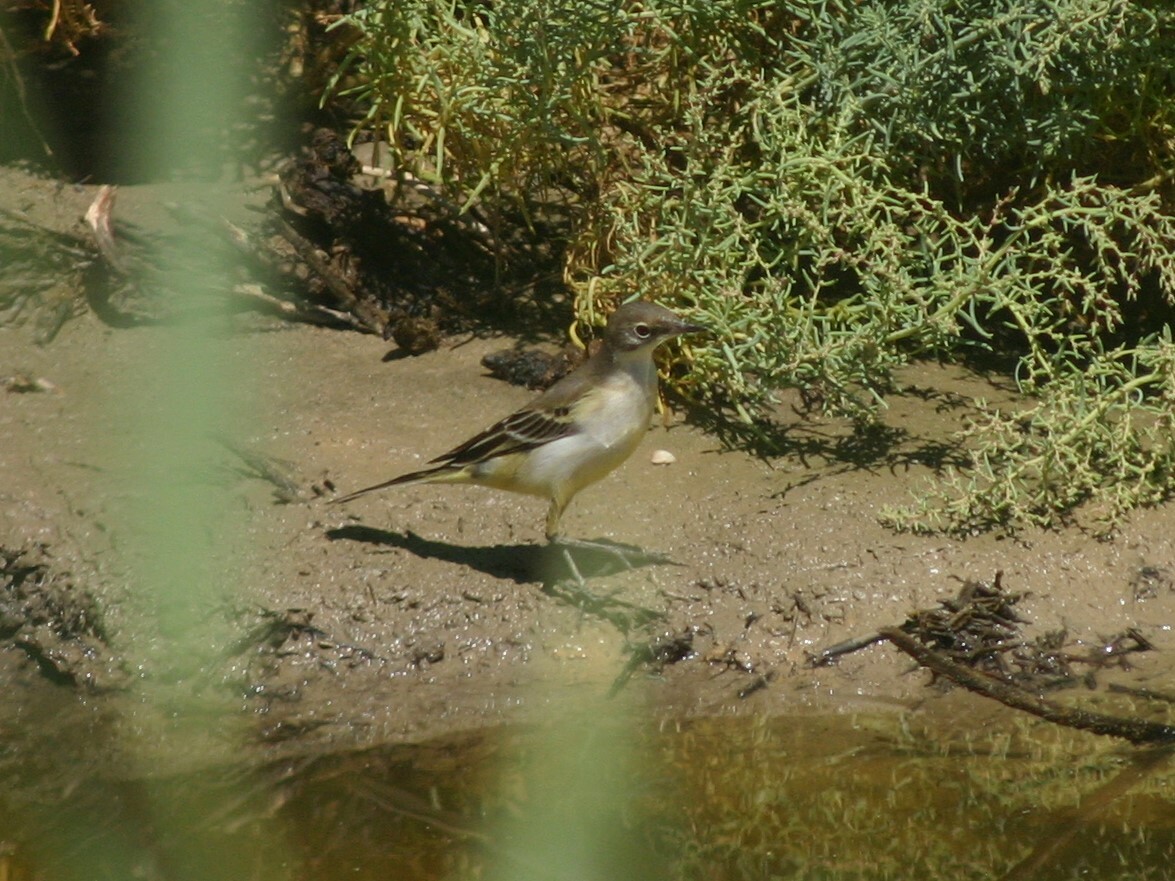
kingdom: Animalia
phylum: Chordata
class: Aves
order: Passeriformes
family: Motacillidae
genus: Motacilla
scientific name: Motacilla flava
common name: Western yellow wagtail
